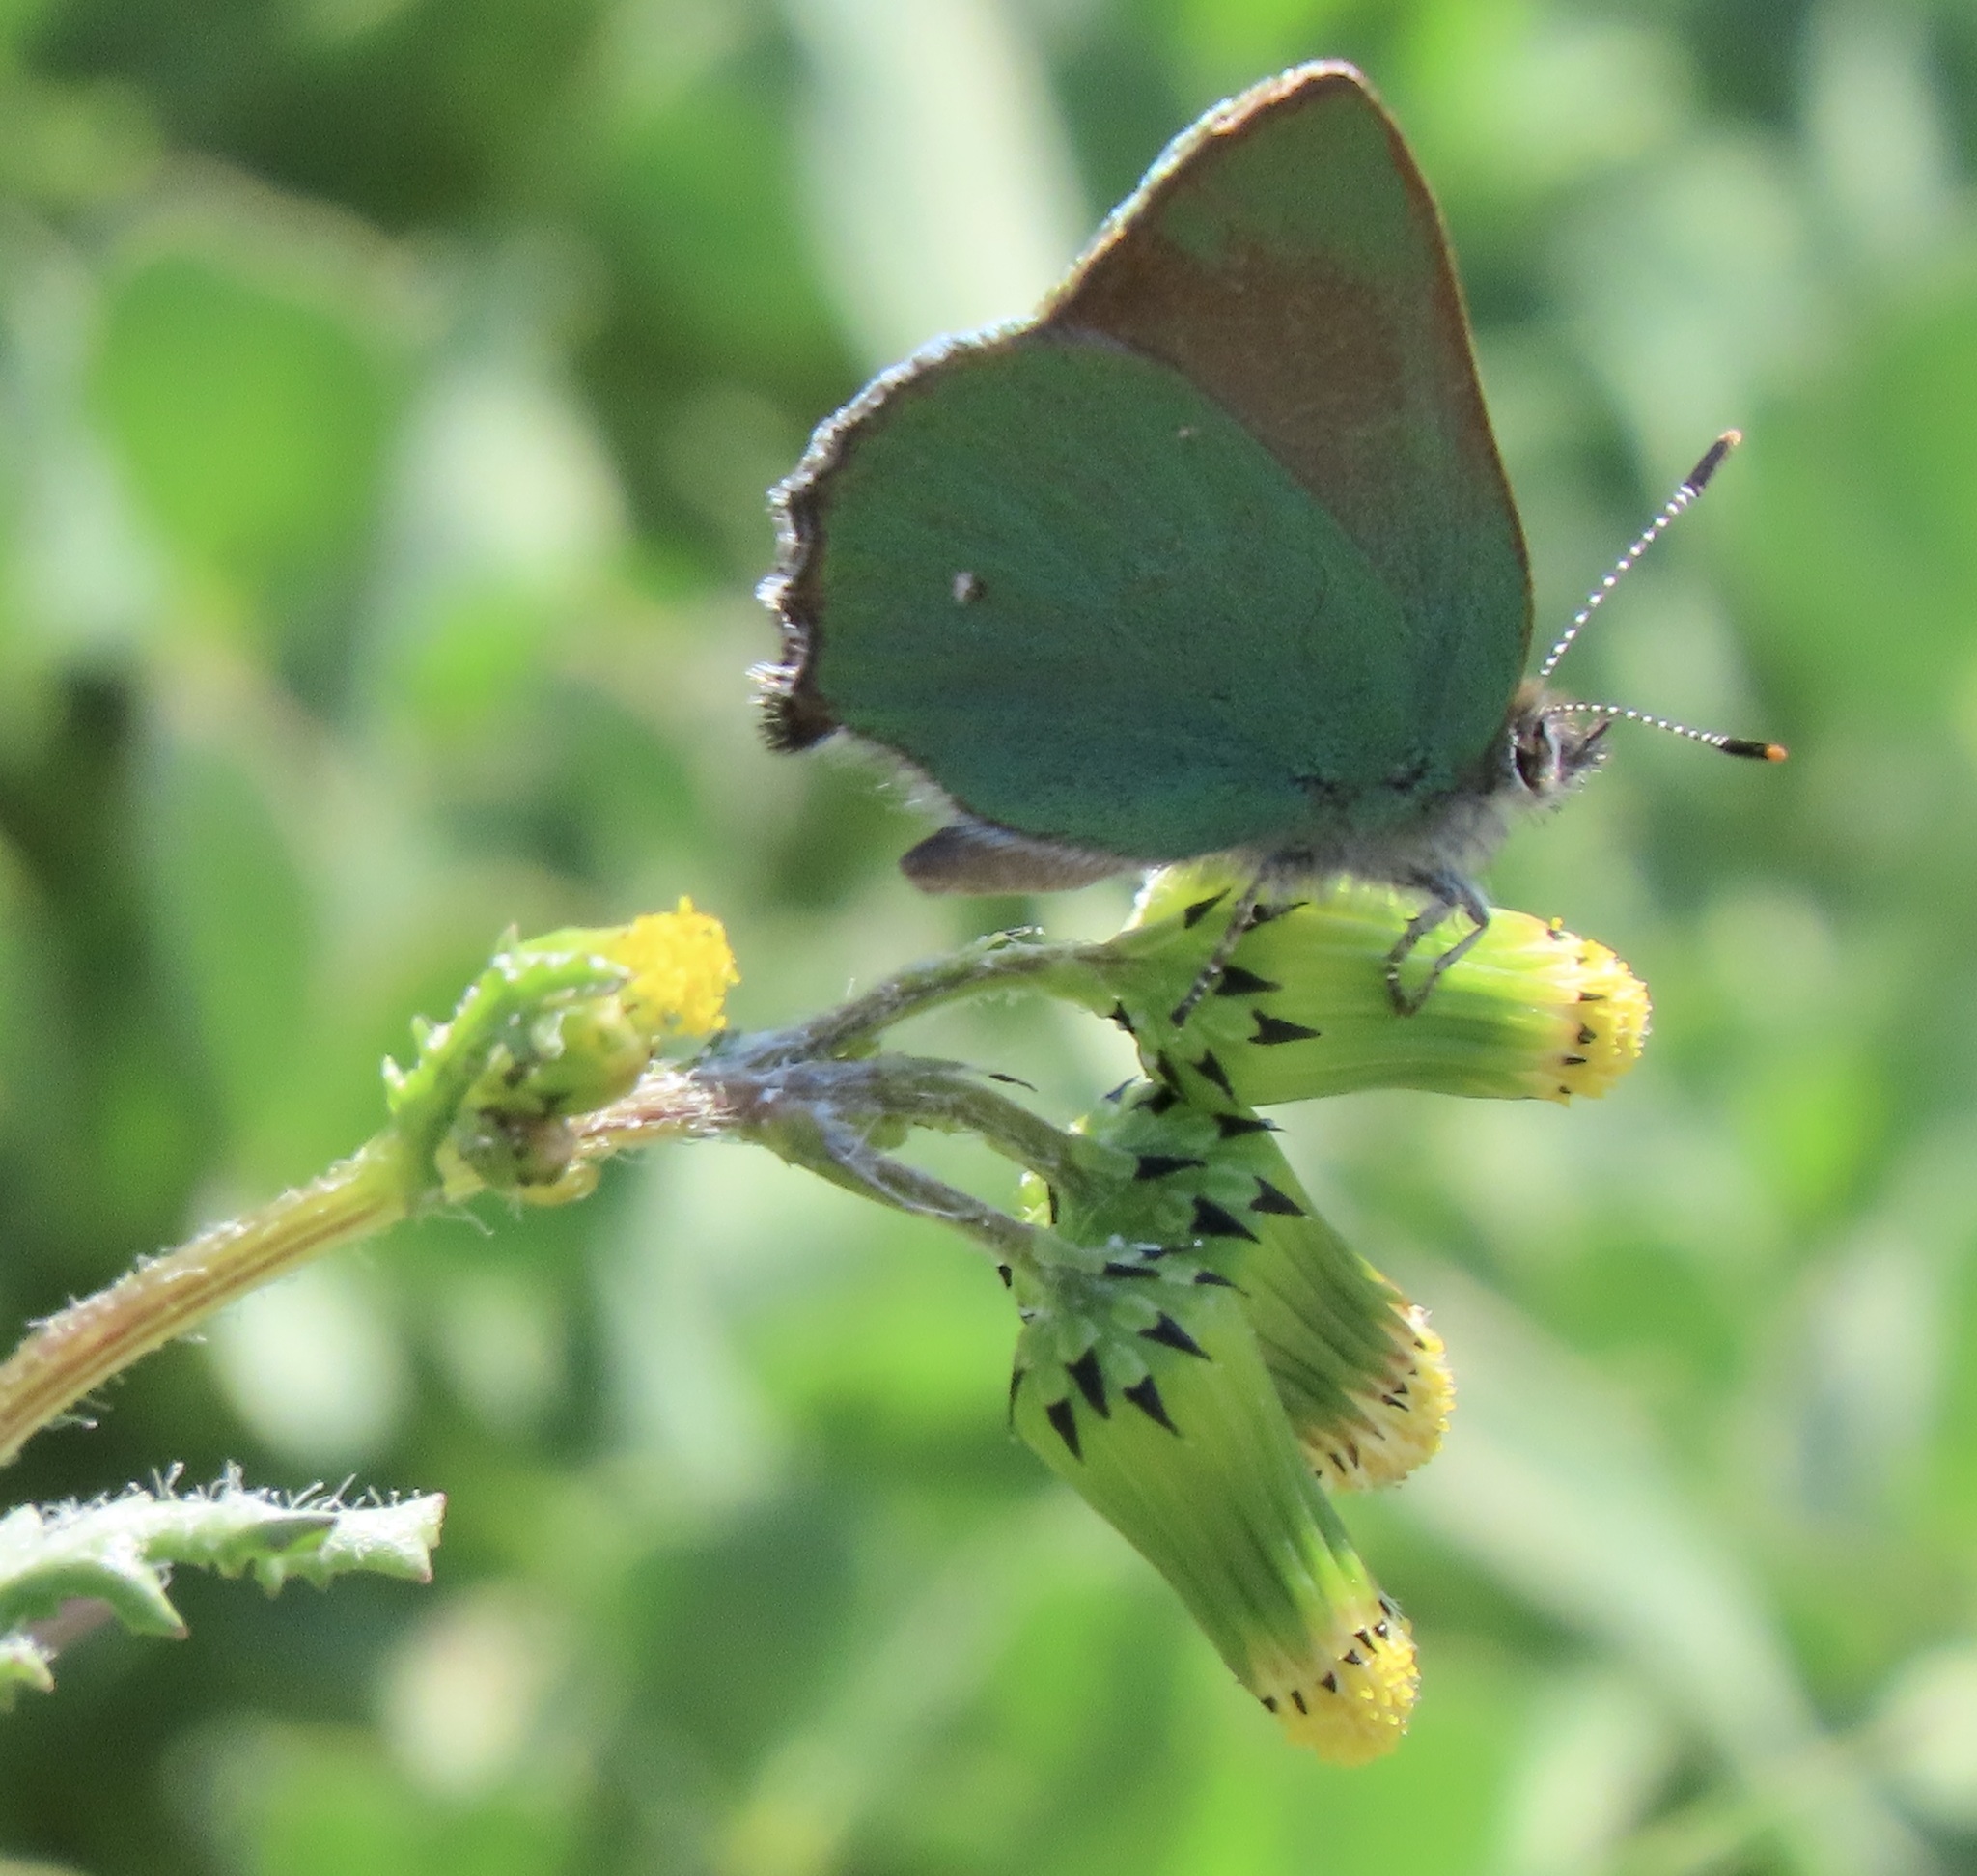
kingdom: Animalia
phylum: Arthropoda
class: Insecta
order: Lepidoptera
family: Lycaenidae
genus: Callophrys
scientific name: Callophrys dumetorum
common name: Bramble hairstreak
